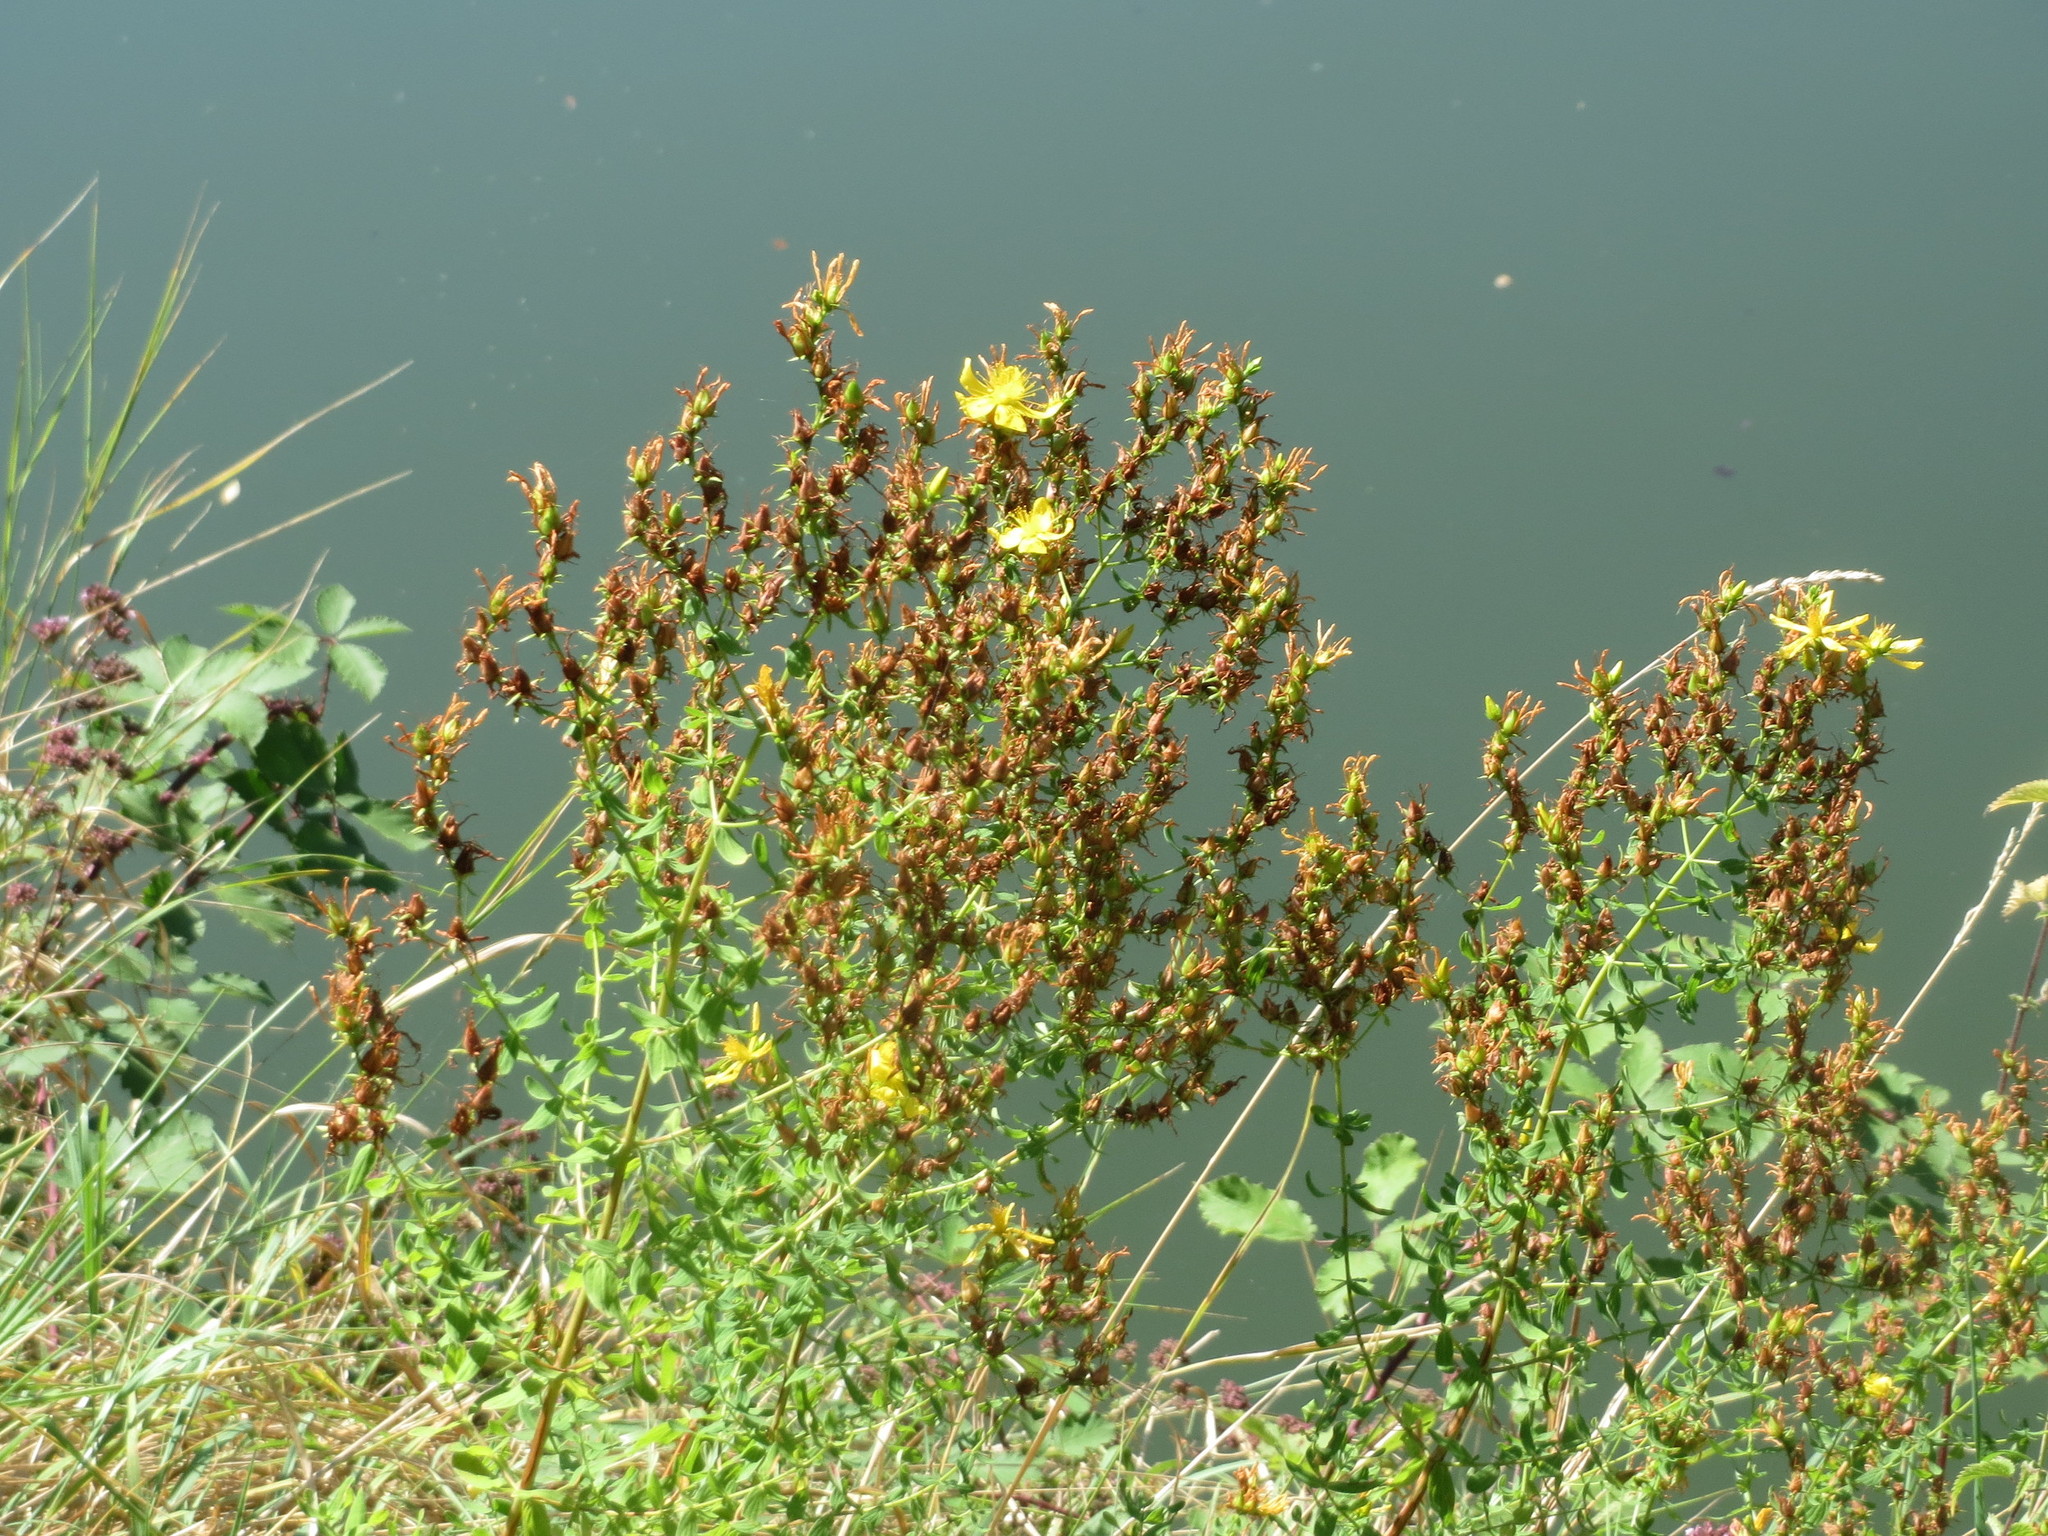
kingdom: Plantae
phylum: Tracheophyta
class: Magnoliopsida
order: Malpighiales
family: Hypericaceae
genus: Hypericum
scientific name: Hypericum perforatum
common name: Common st. johnswort
